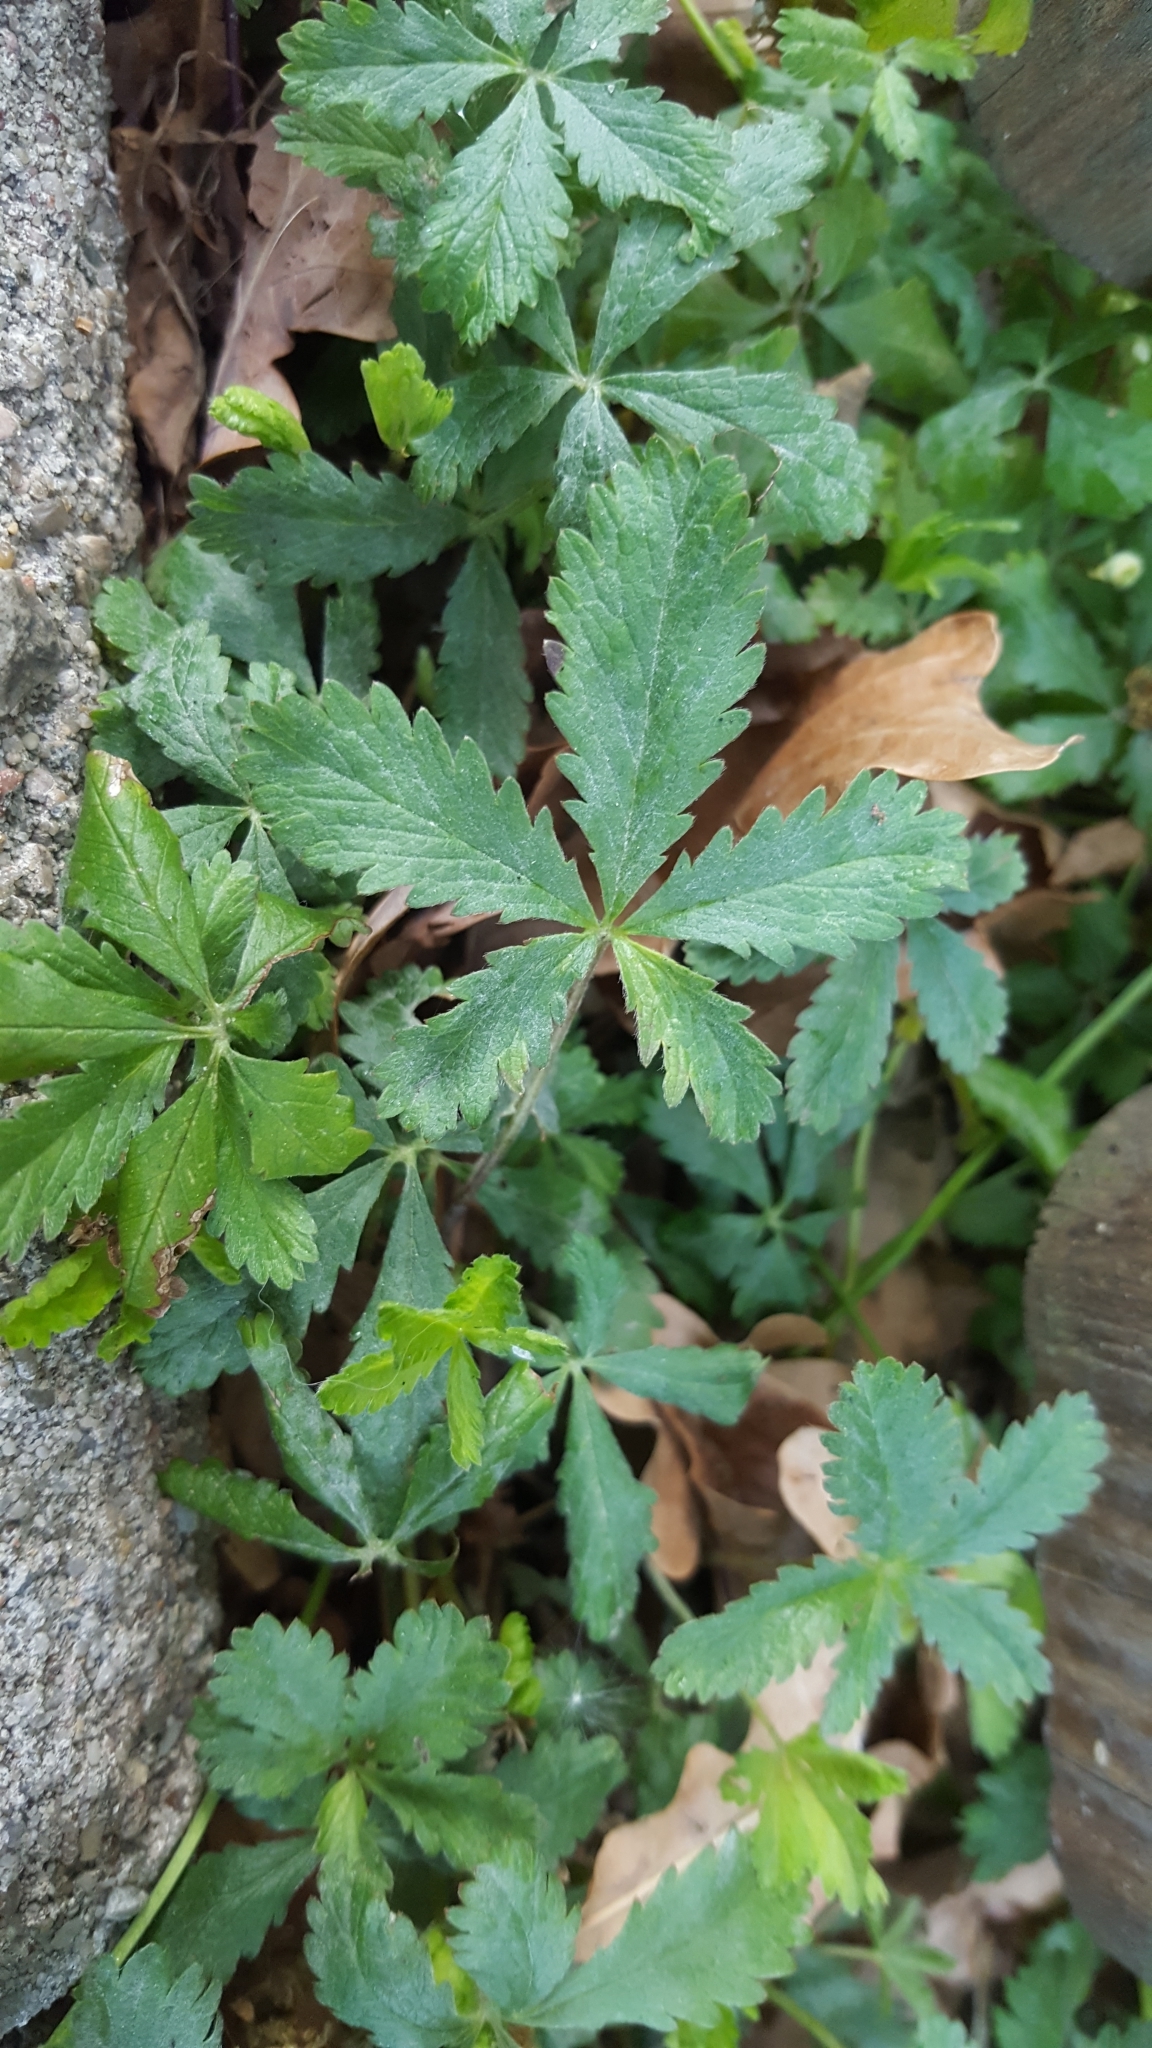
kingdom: Plantae
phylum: Tracheophyta
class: Magnoliopsida
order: Rosales
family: Rosaceae
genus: Potentilla
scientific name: Potentilla reptans
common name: Creeping cinquefoil
